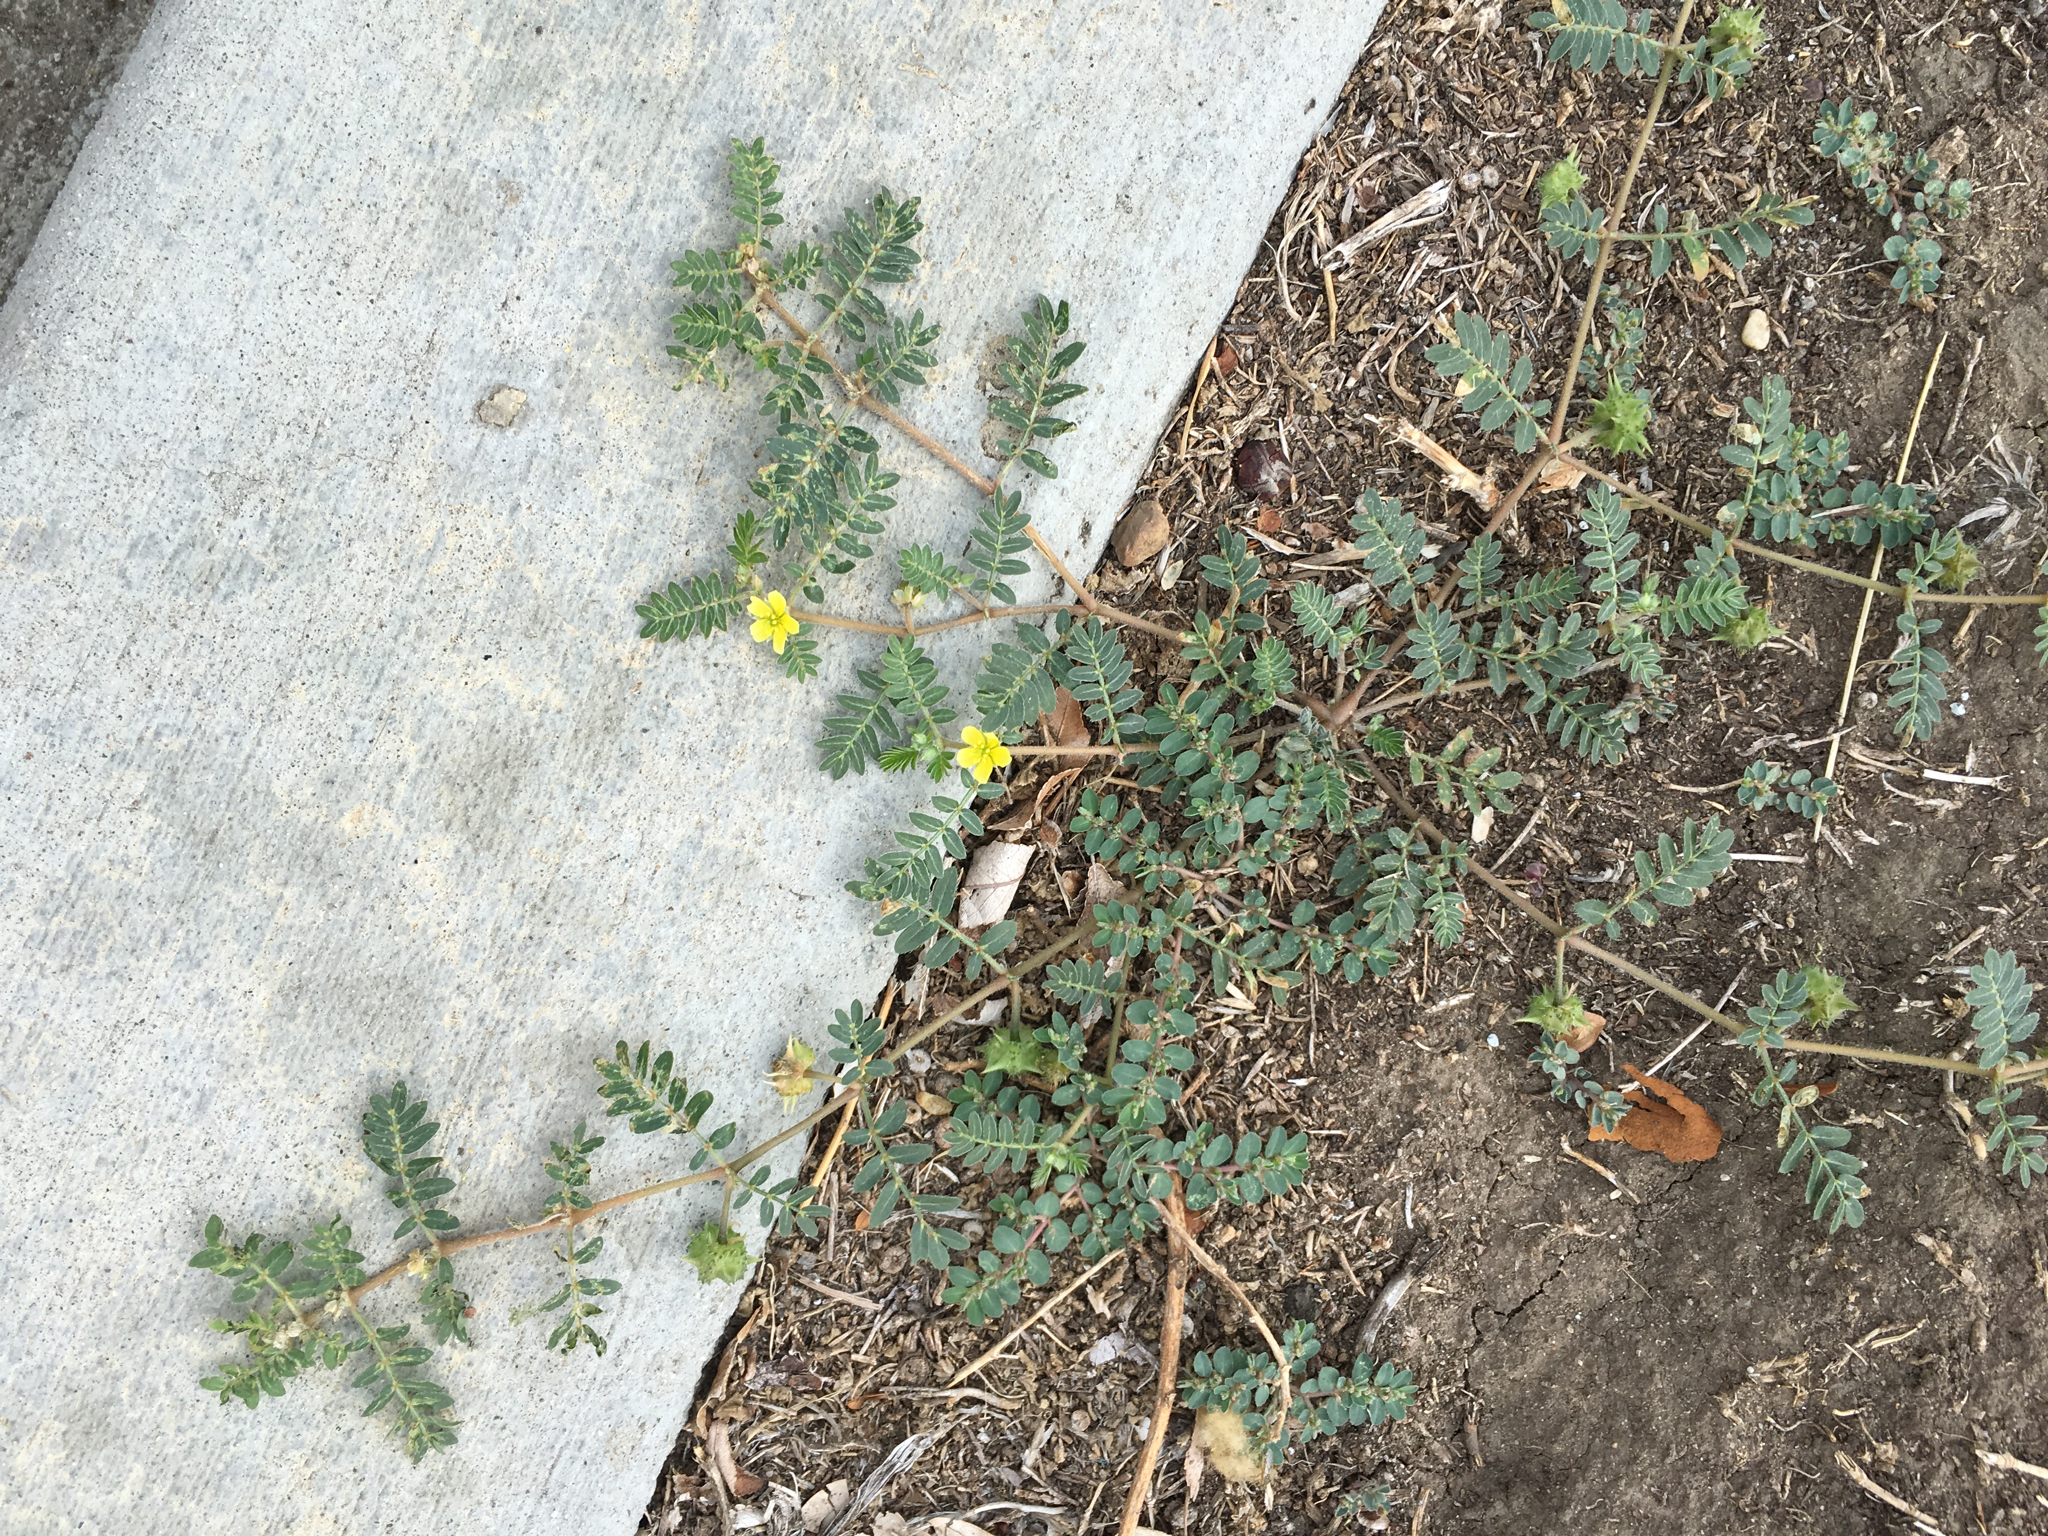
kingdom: Plantae
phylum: Tracheophyta
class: Magnoliopsida
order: Zygophyllales
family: Zygophyllaceae
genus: Tribulus
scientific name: Tribulus terrestris
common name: Puncturevine
